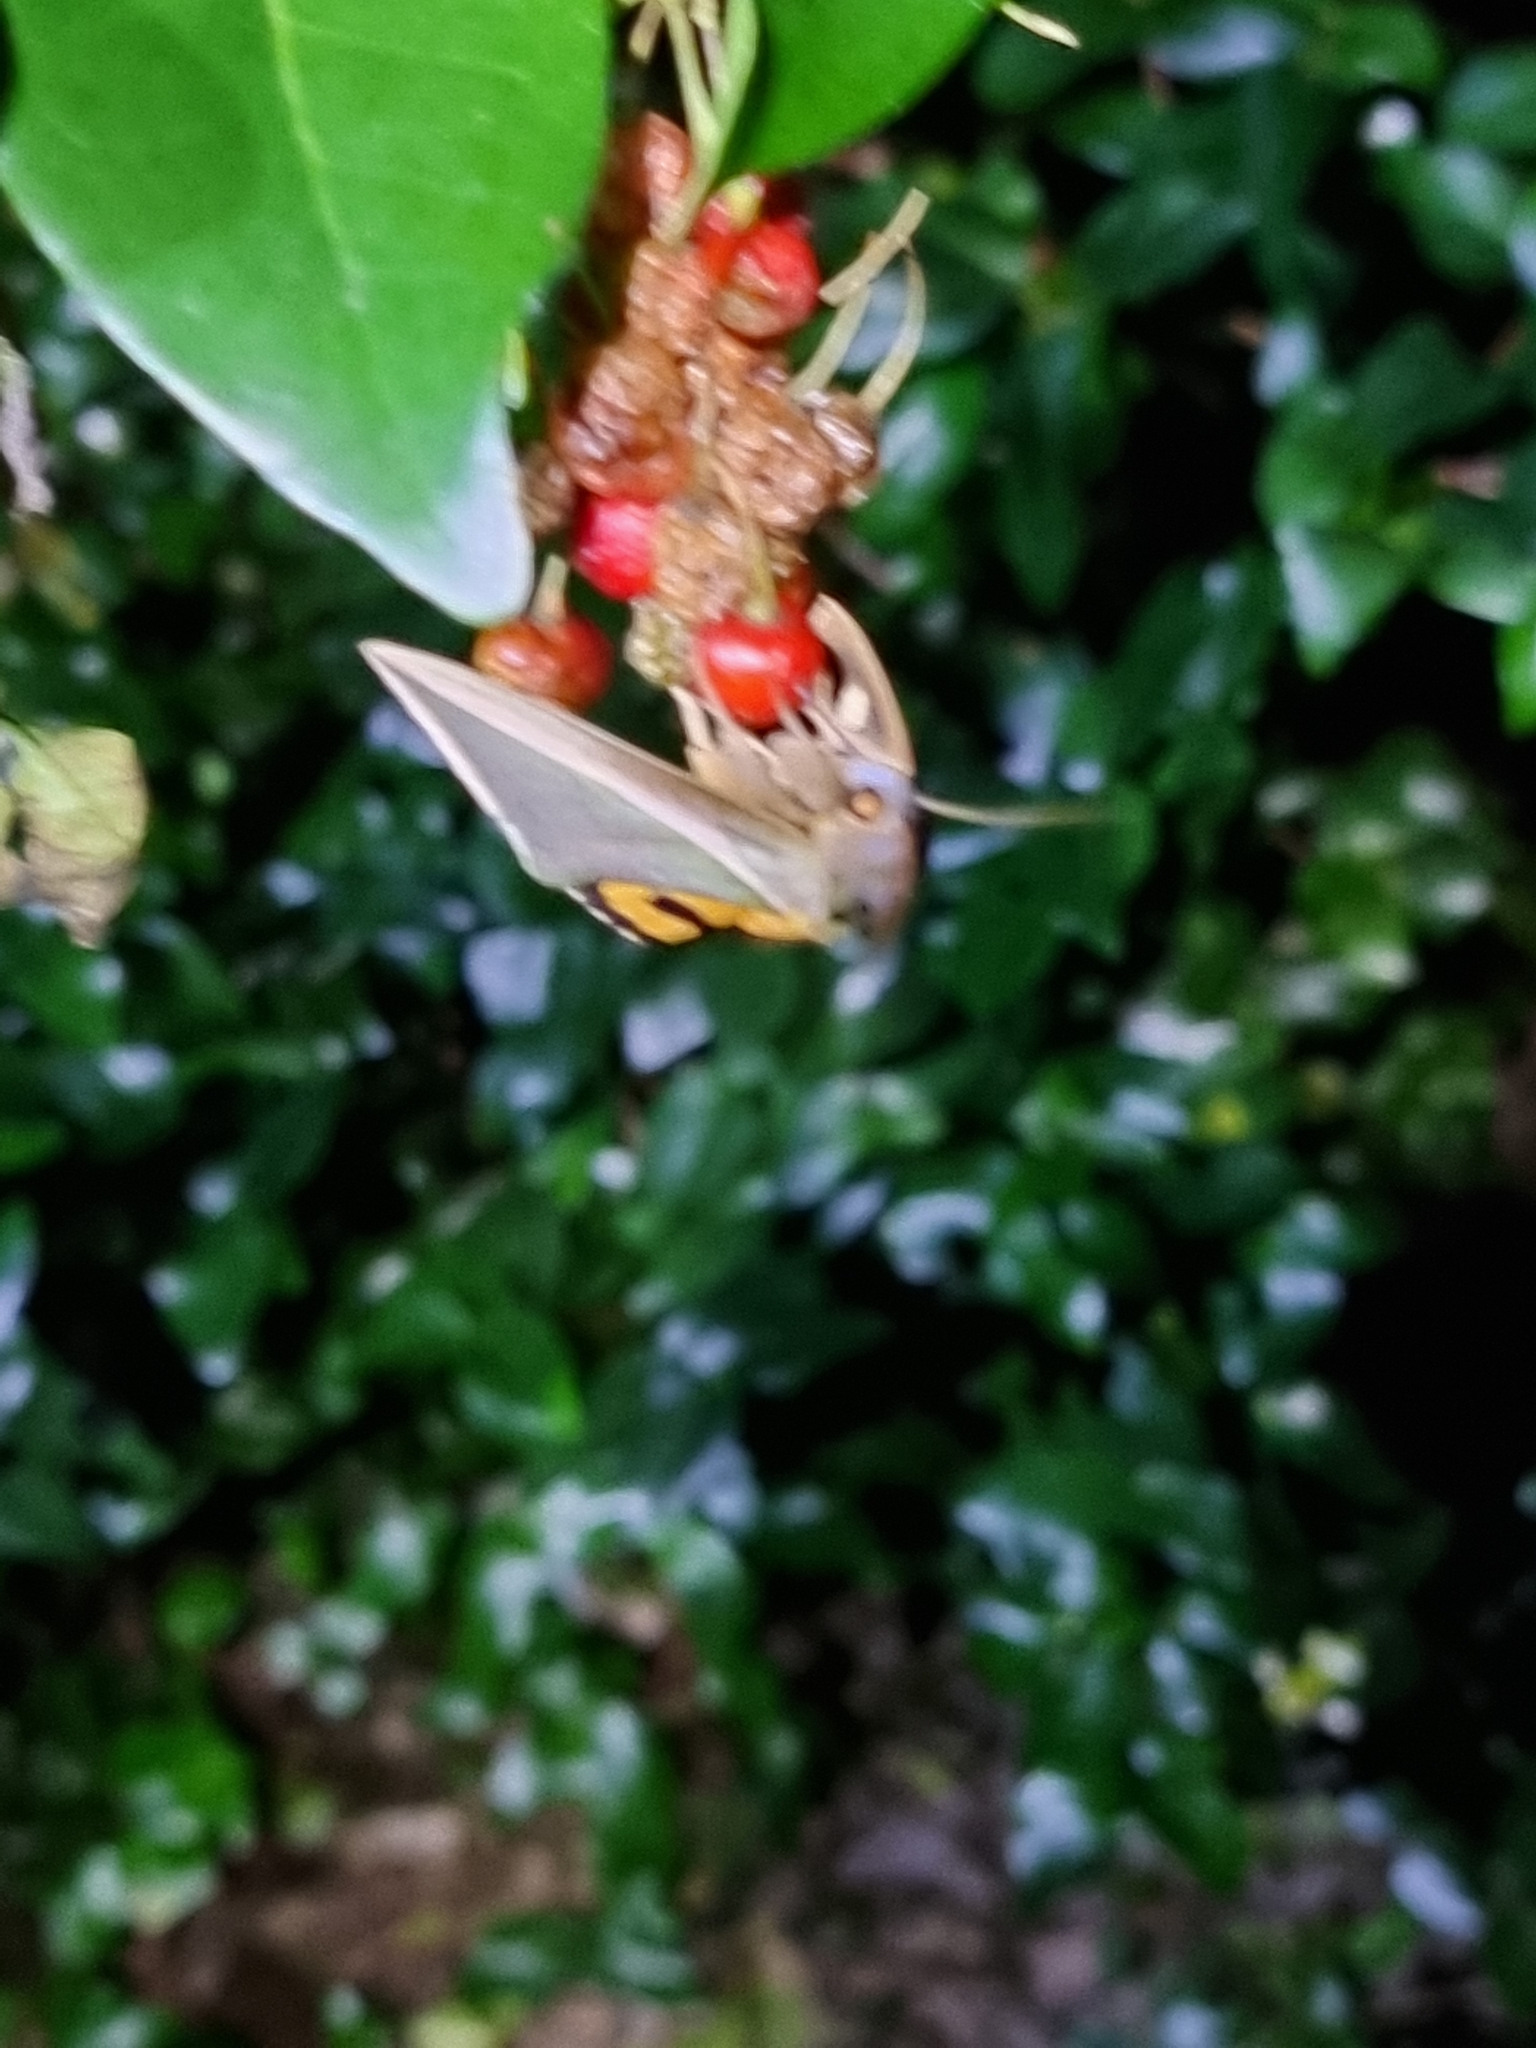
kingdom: Animalia
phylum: Arthropoda
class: Insecta
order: Lepidoptera
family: Erebidae
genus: Eudocima
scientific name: Eudocima salaminia
